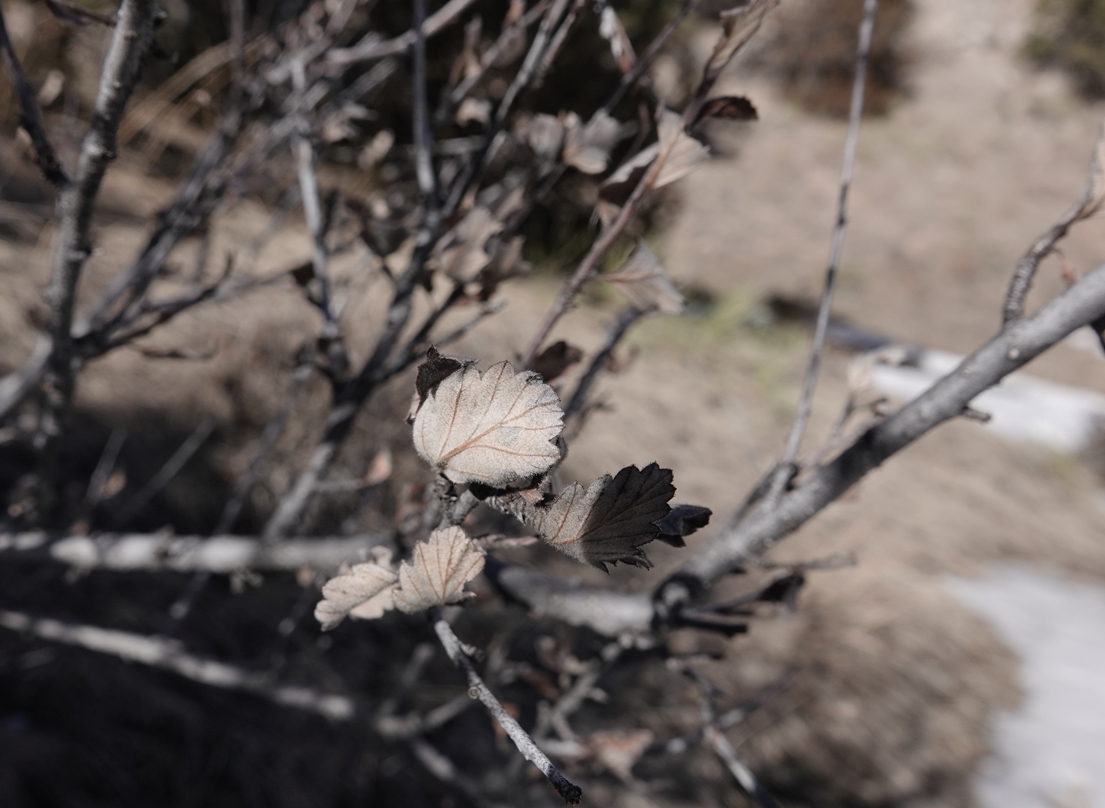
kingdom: Plantae
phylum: Tracheophyta
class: Magnoliopsida
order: Rosales
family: Rosaceae
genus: Cercocarpus
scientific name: Cercocarpus montanus
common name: Alder-leaf cercocarpus
